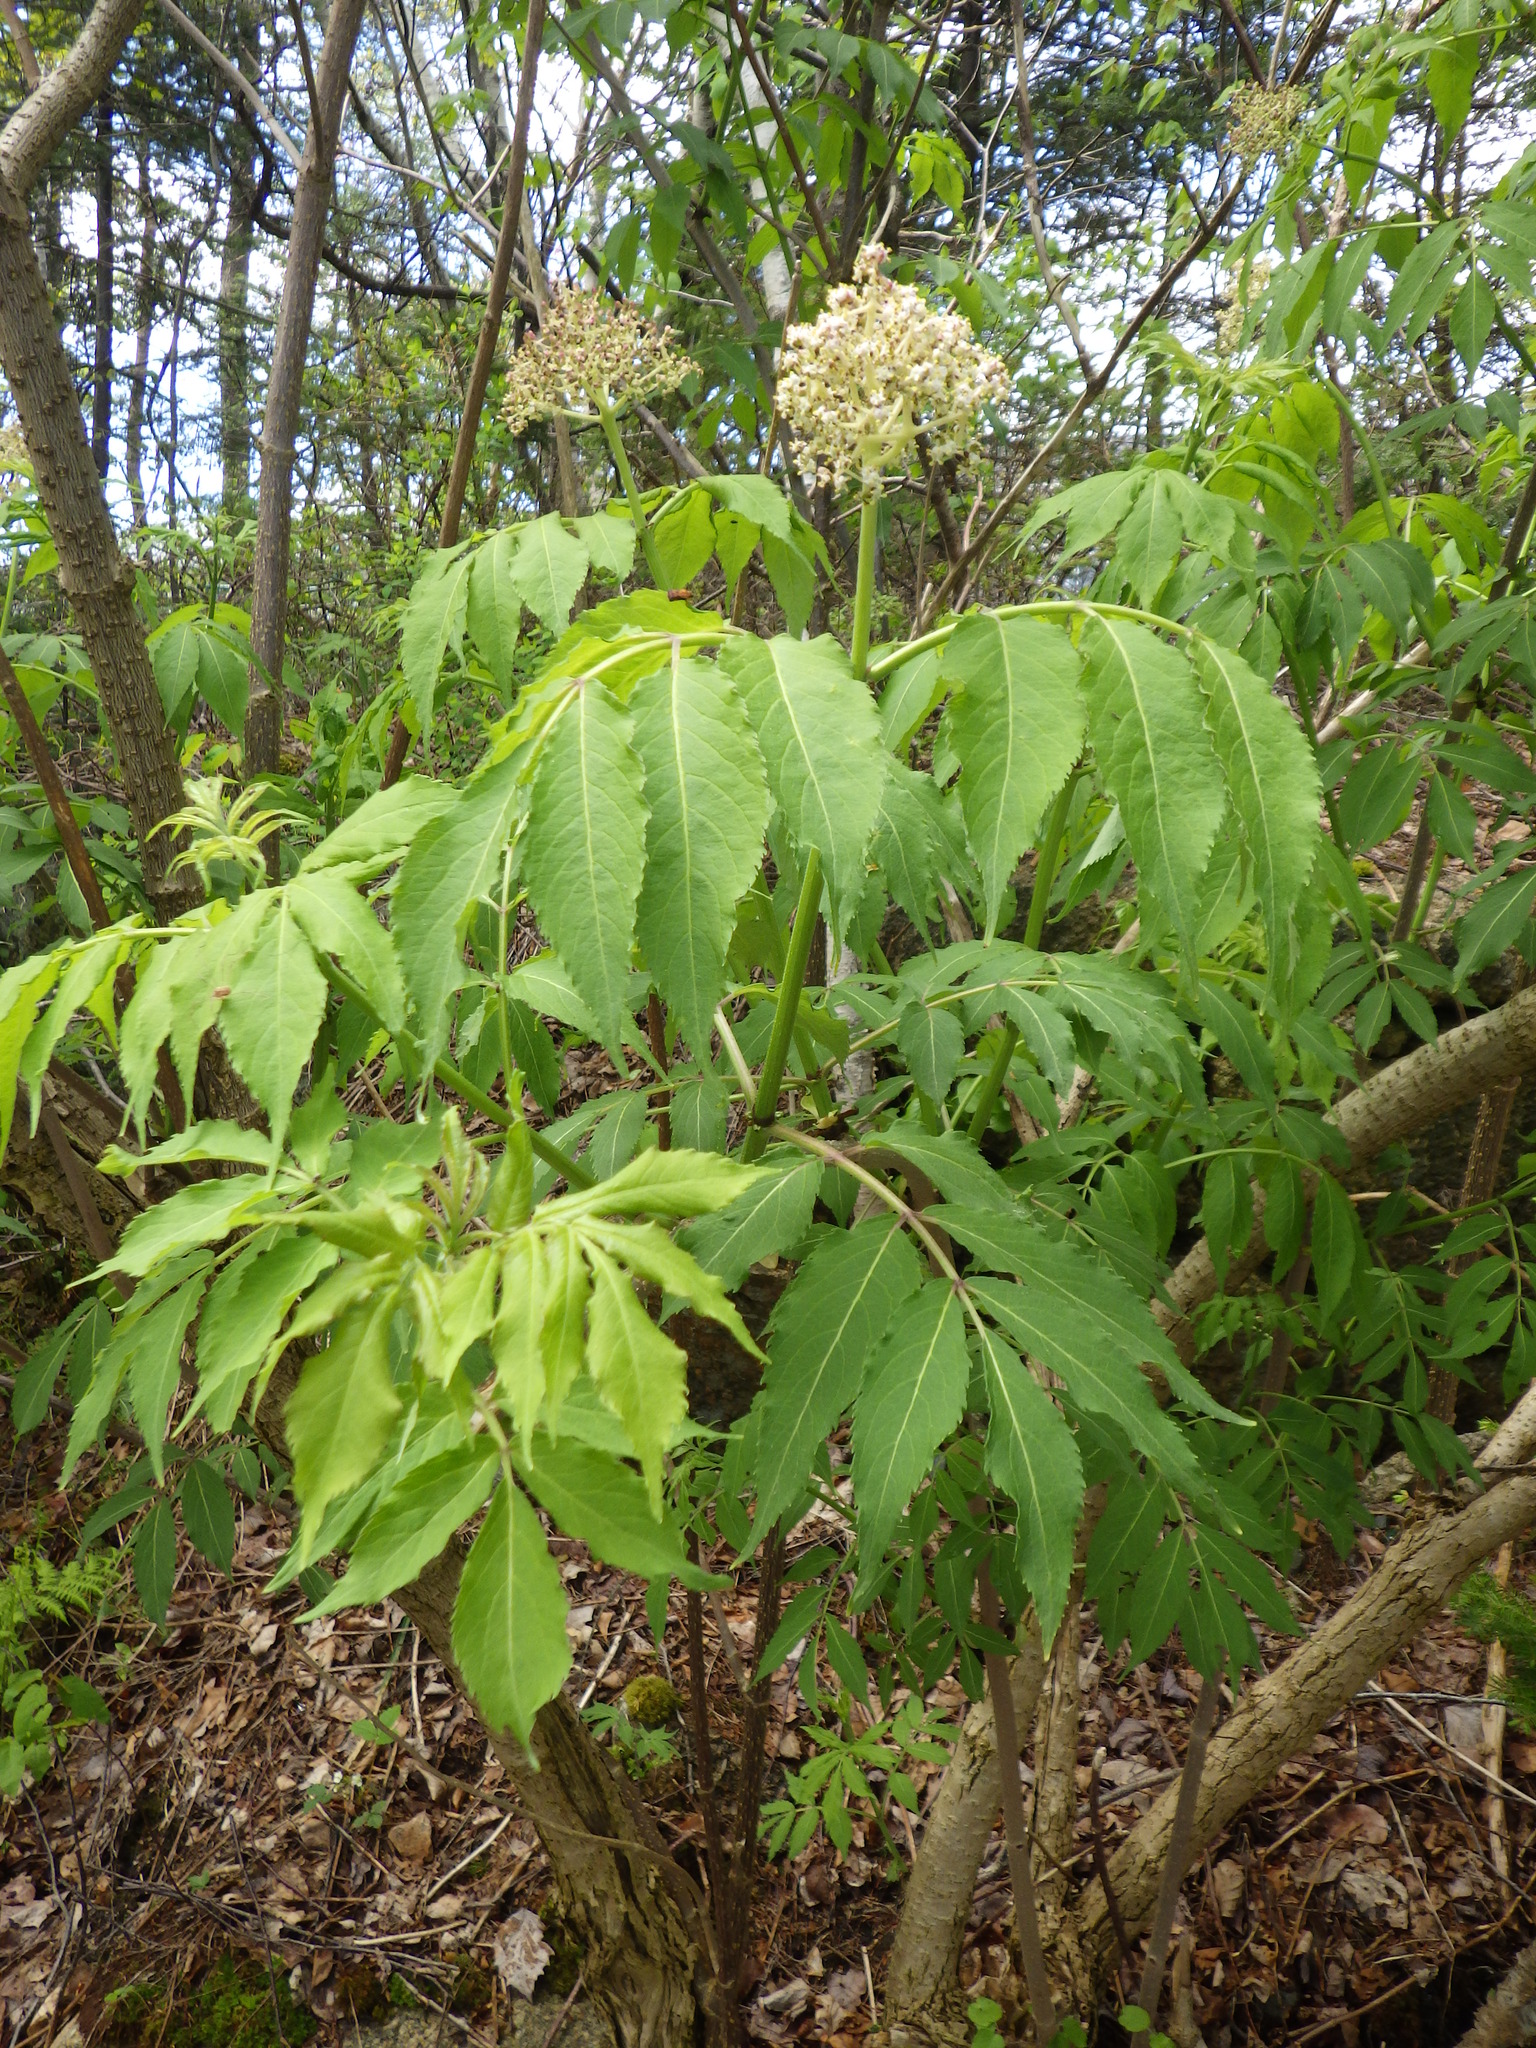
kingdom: Plantae
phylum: Tracheophyta
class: Magnoliopsida
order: Dipsacales
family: Viburnaceae
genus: Sambucus
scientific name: Sambucus racemosa
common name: Red-berried elder
